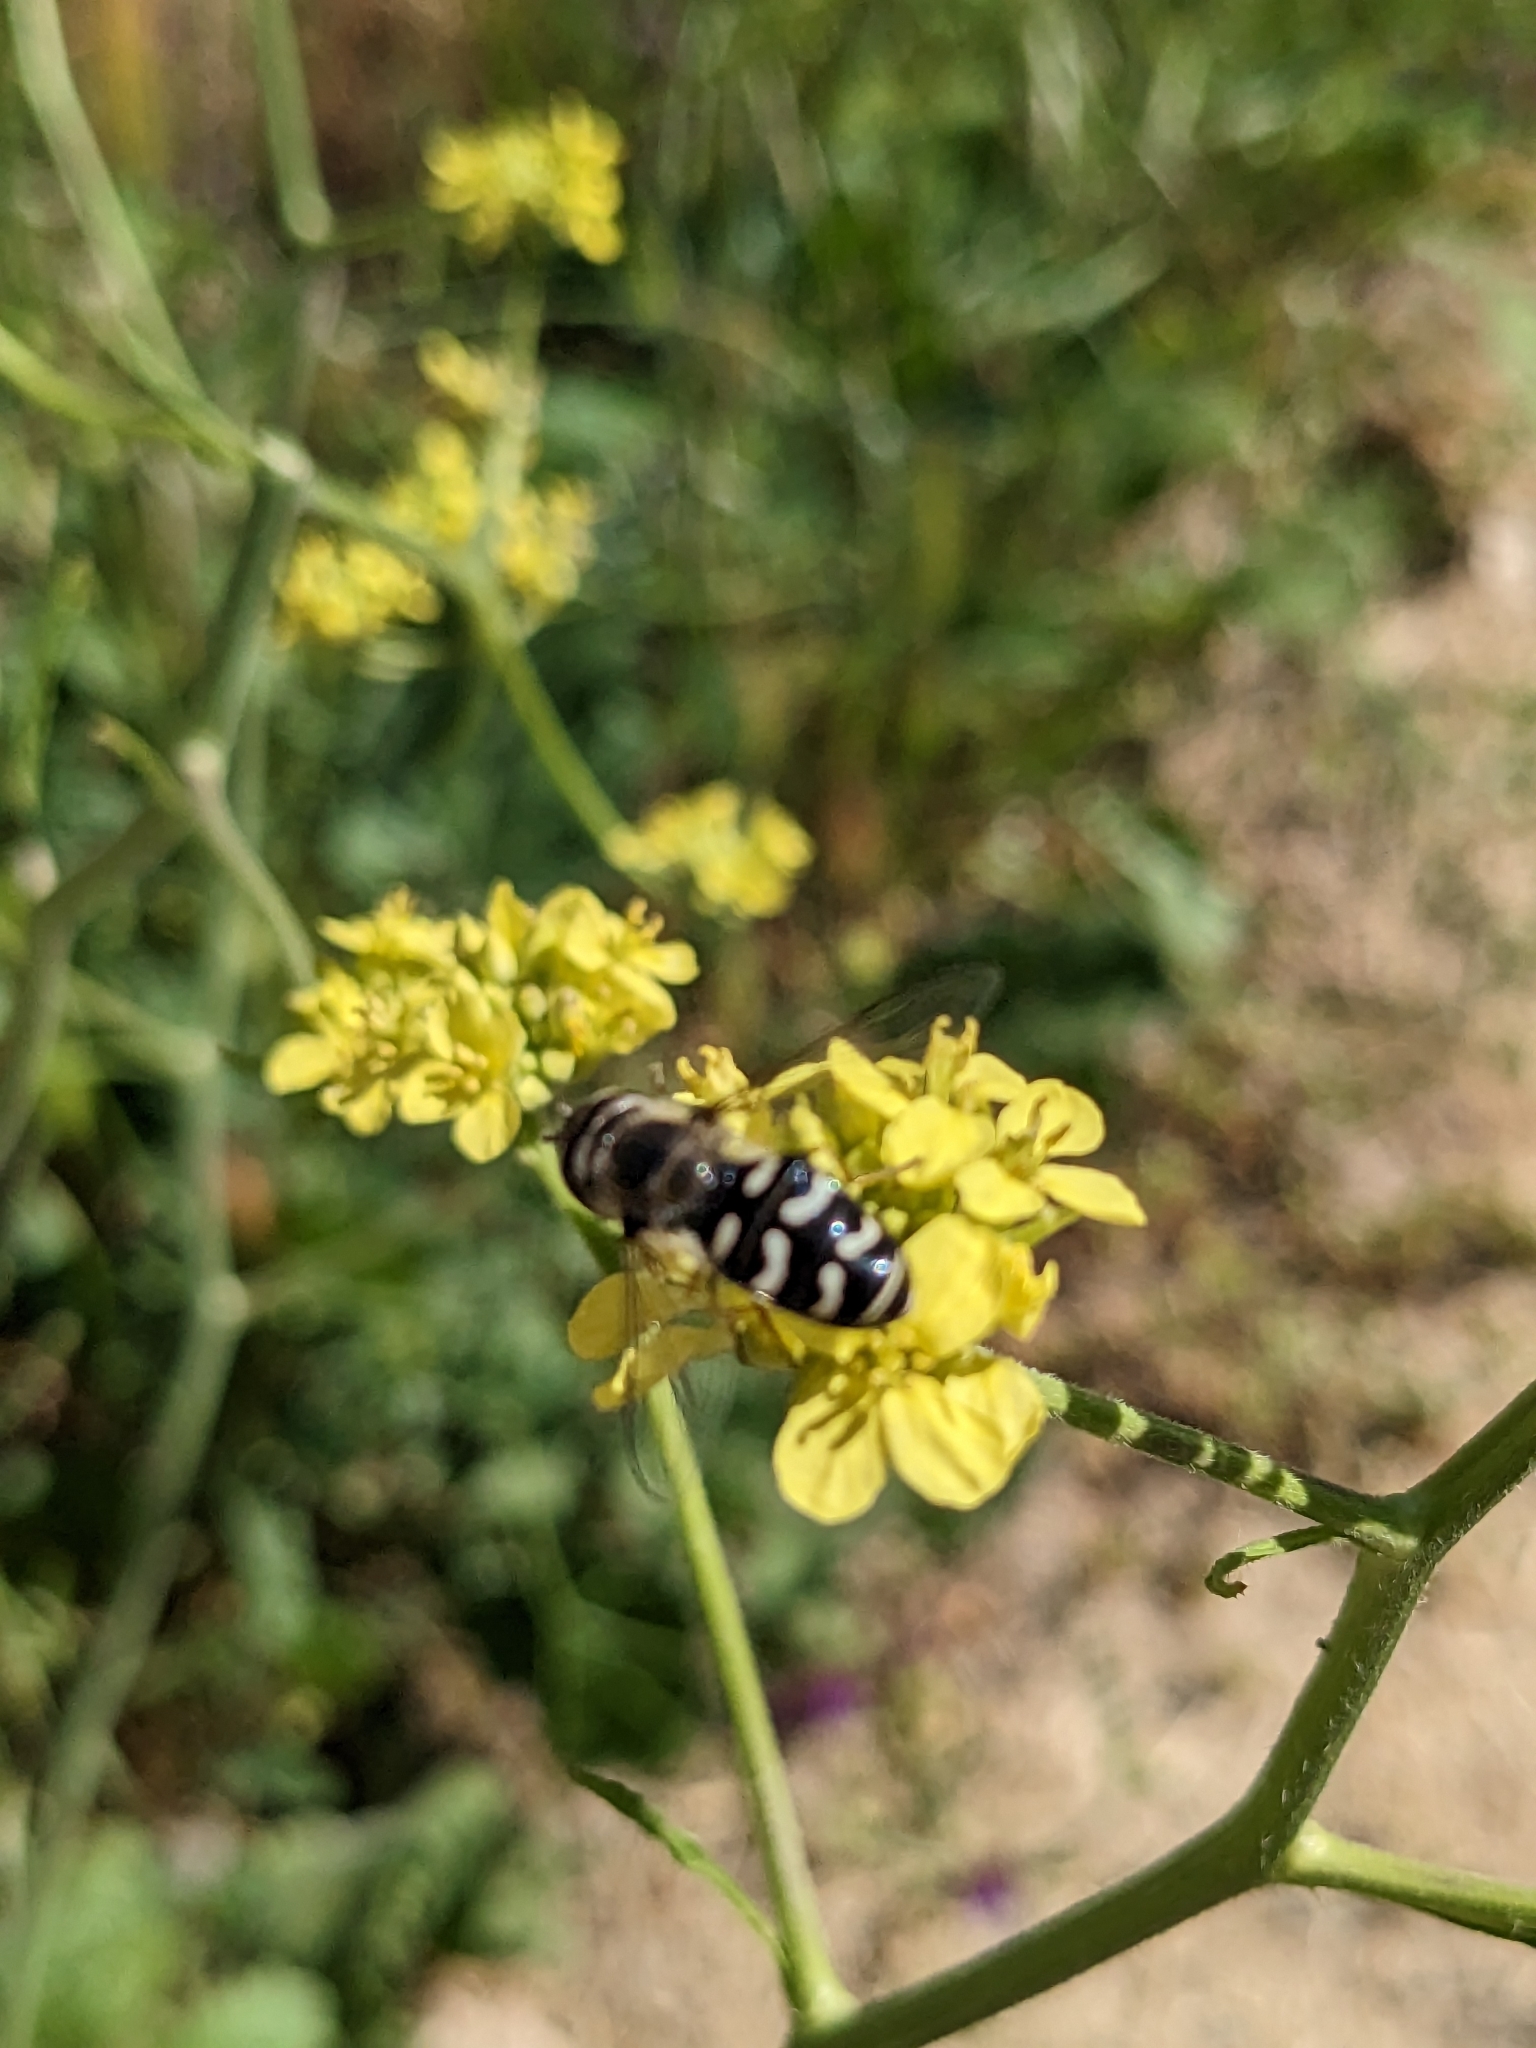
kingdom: Animalia
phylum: Arthropoda
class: Insecta
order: Diptera
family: Syrphidae
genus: Scaeva
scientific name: Scaeva affinis
